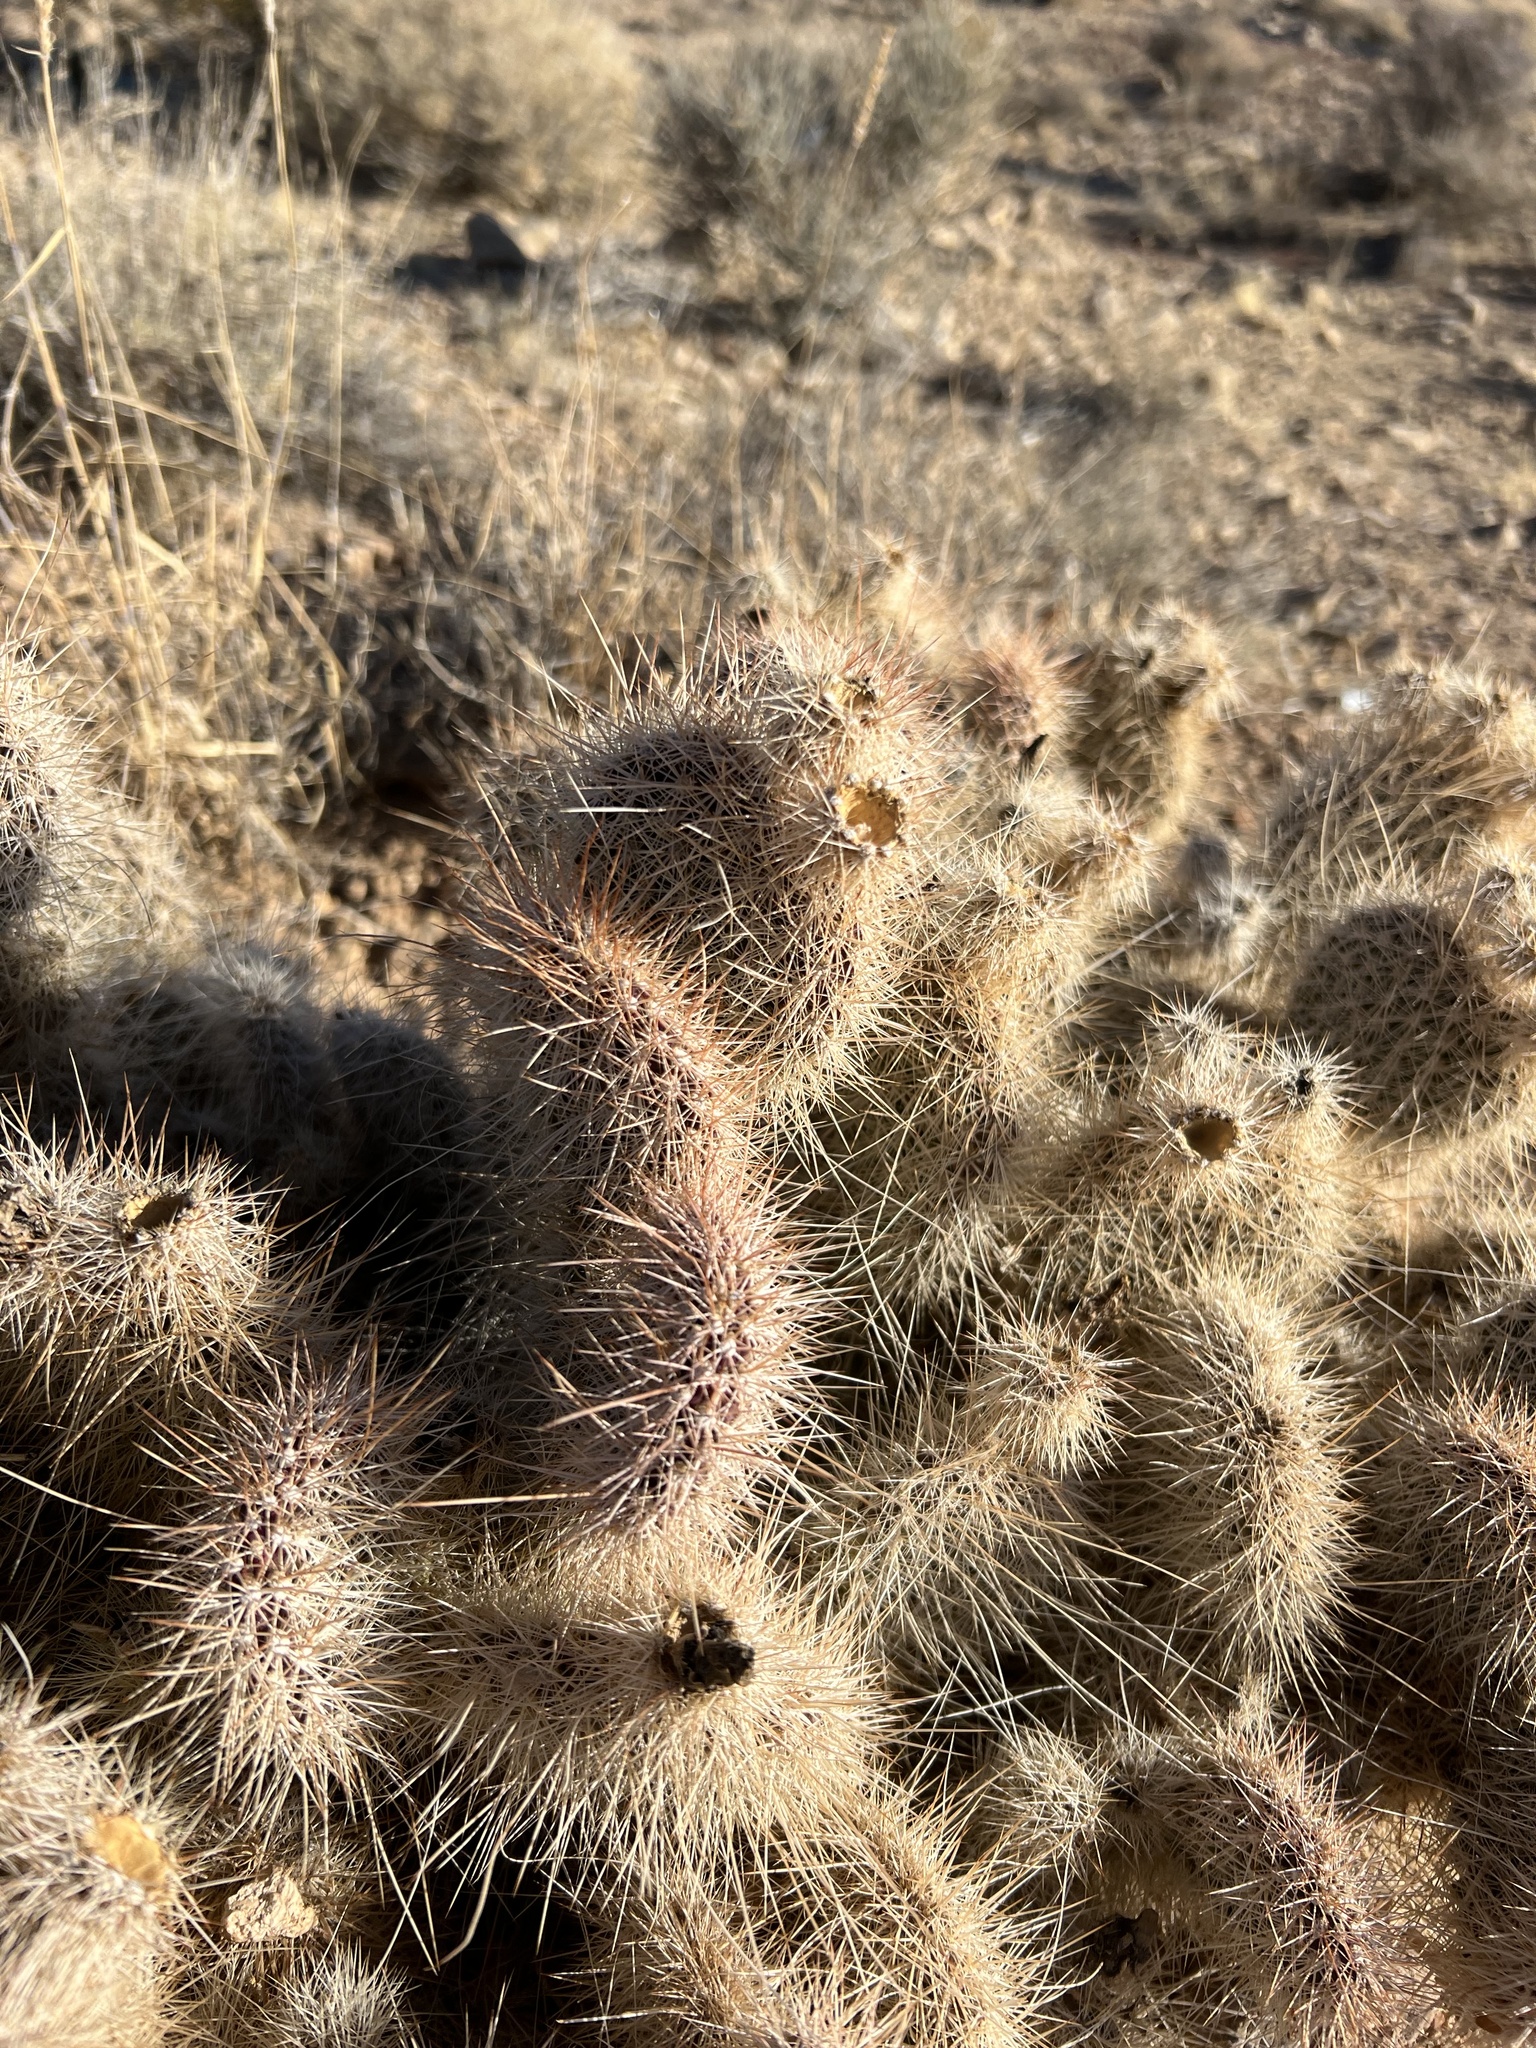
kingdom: Plantae
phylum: Tracheophyta
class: Magnoliopsida
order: Caryophyllales
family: Cactaceae
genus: Opuntia
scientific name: Opuntia polyacantha
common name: Plains prickly-pear
